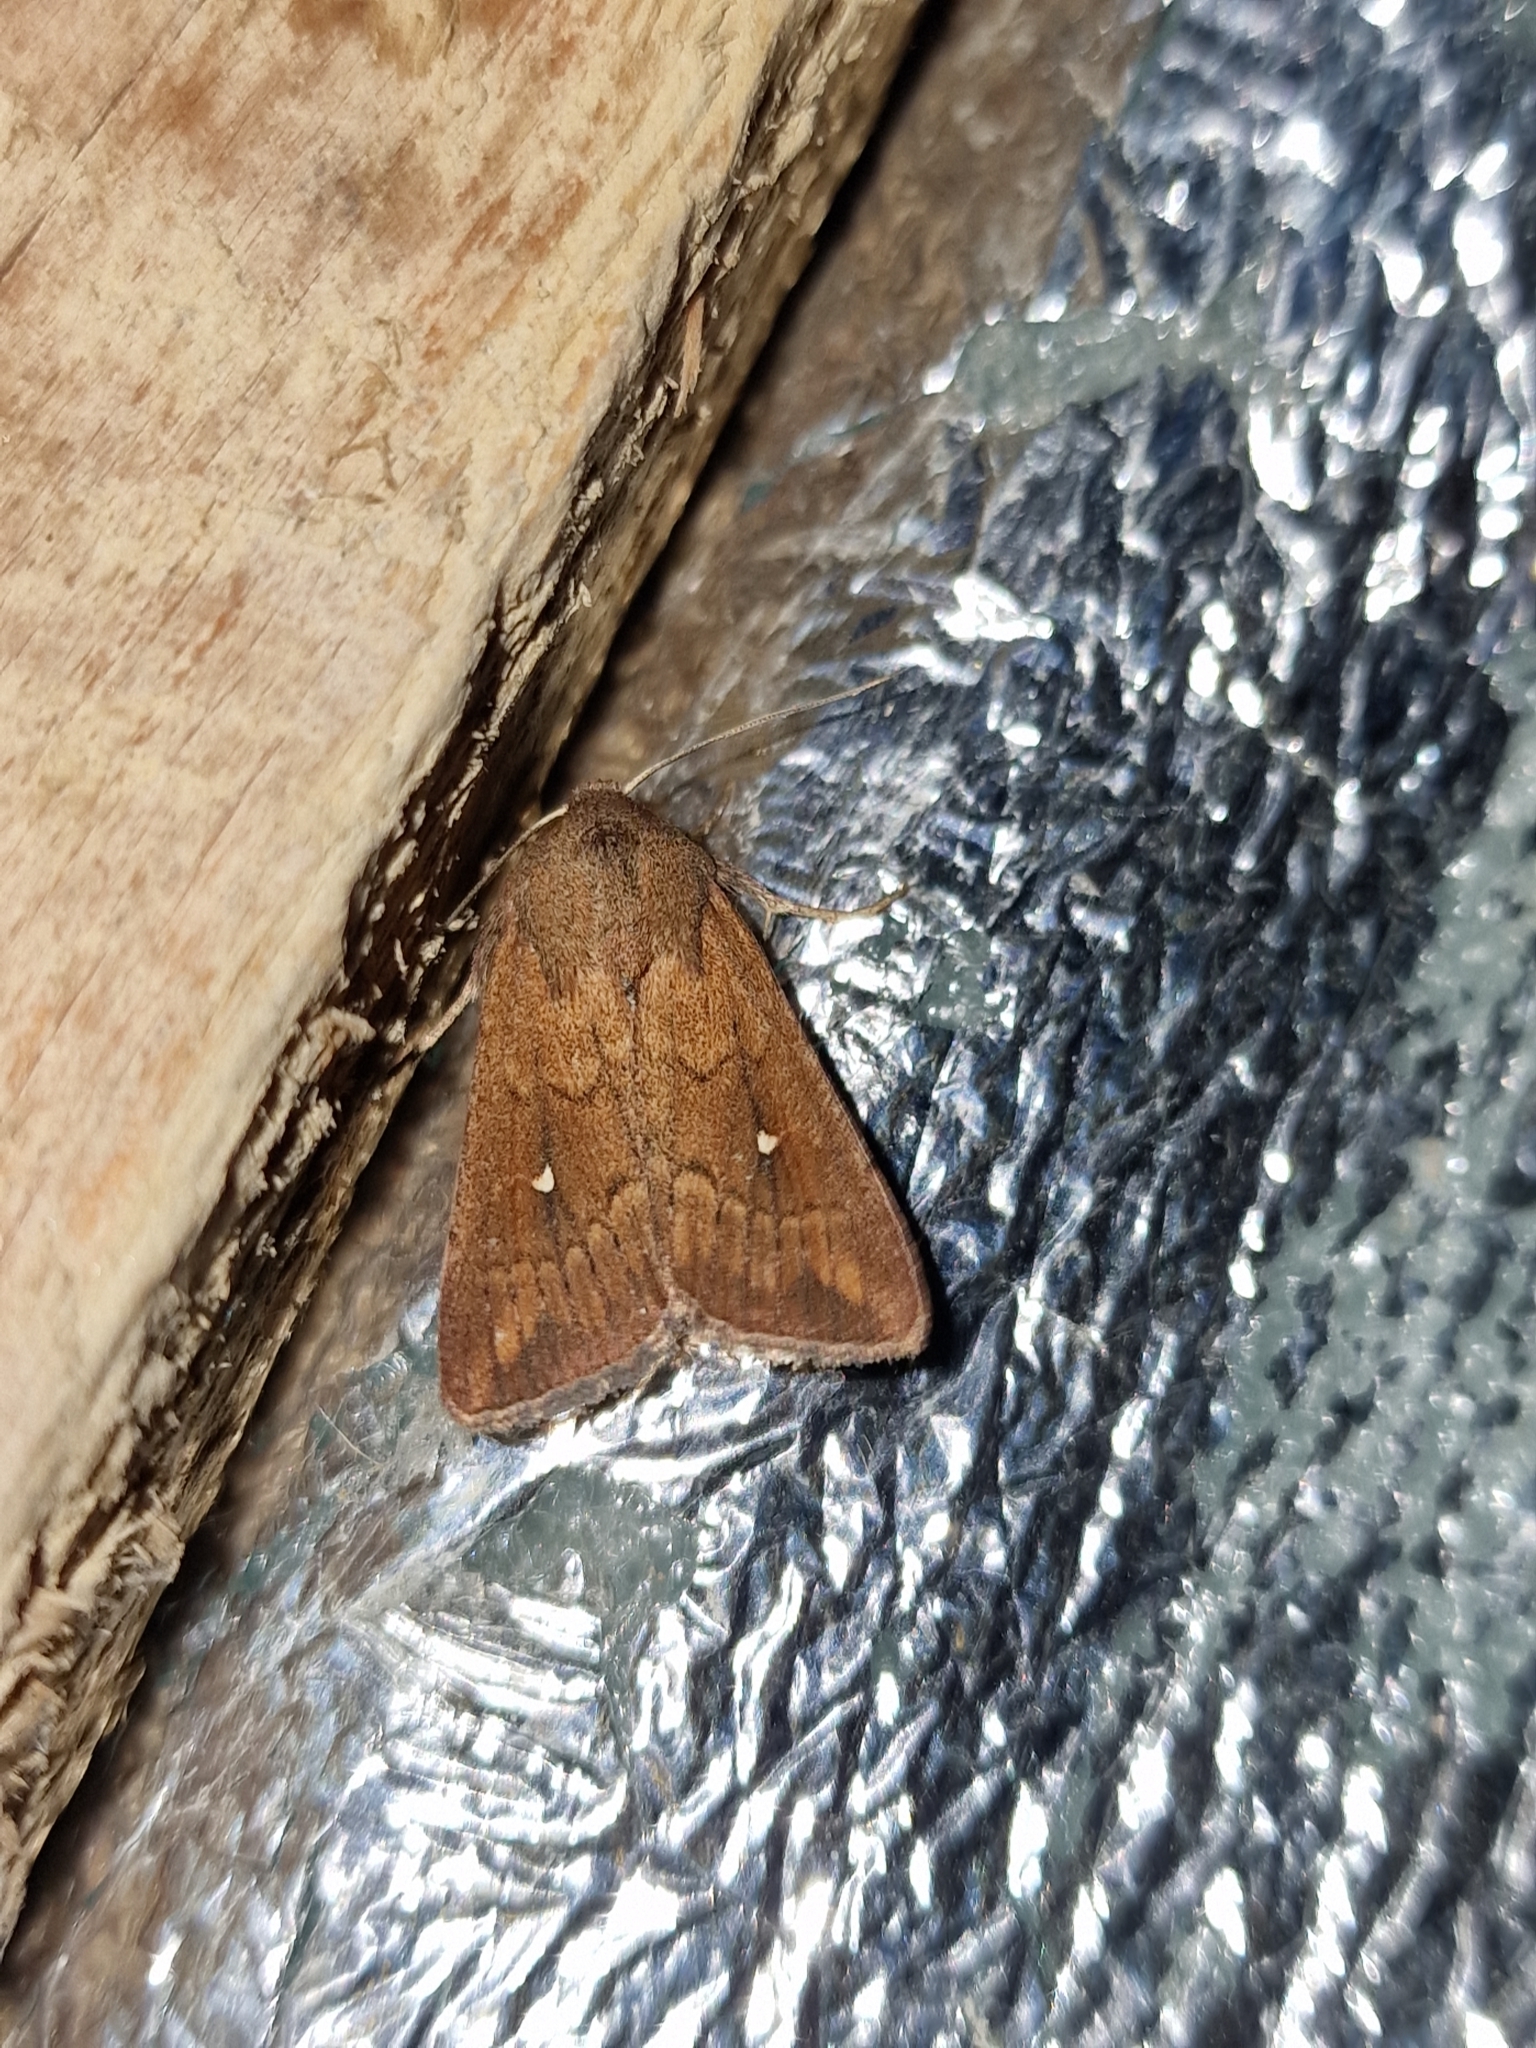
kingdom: Animalia
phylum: Arthropoda
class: Insecta
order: Lepidoptera
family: Noctuidae
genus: Mythimna
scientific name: Mythimna albipuncta
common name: White-point
